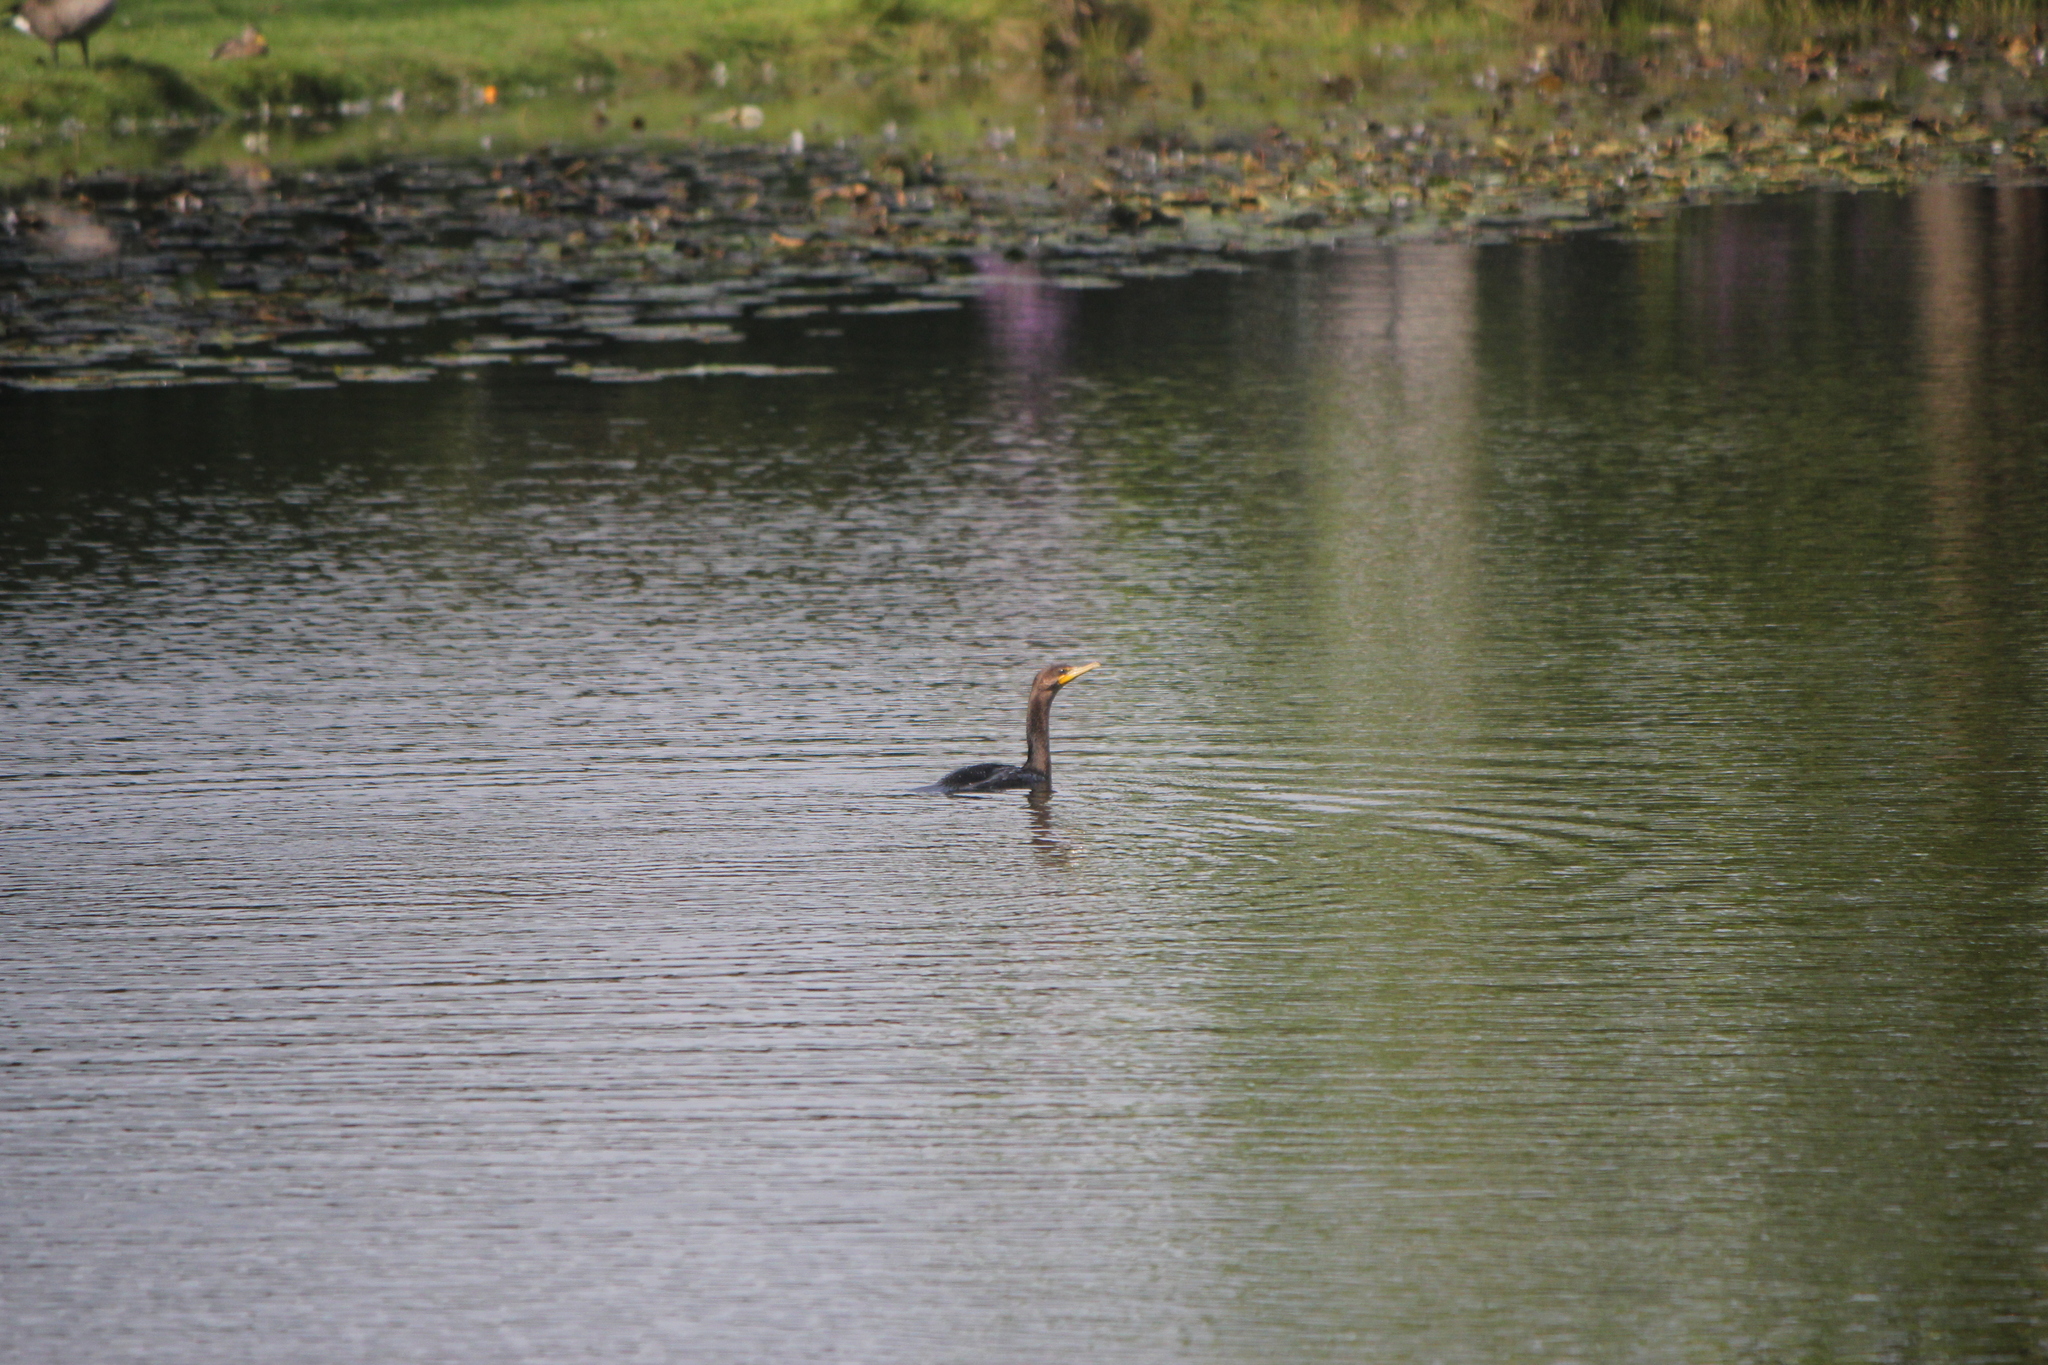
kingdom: Animalia
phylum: Chordata
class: Aves
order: Suliformes
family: Phalacrocoracidae
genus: Phalacrocorax
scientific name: Phalacrocorax auritus
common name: Double-crested cormorant
